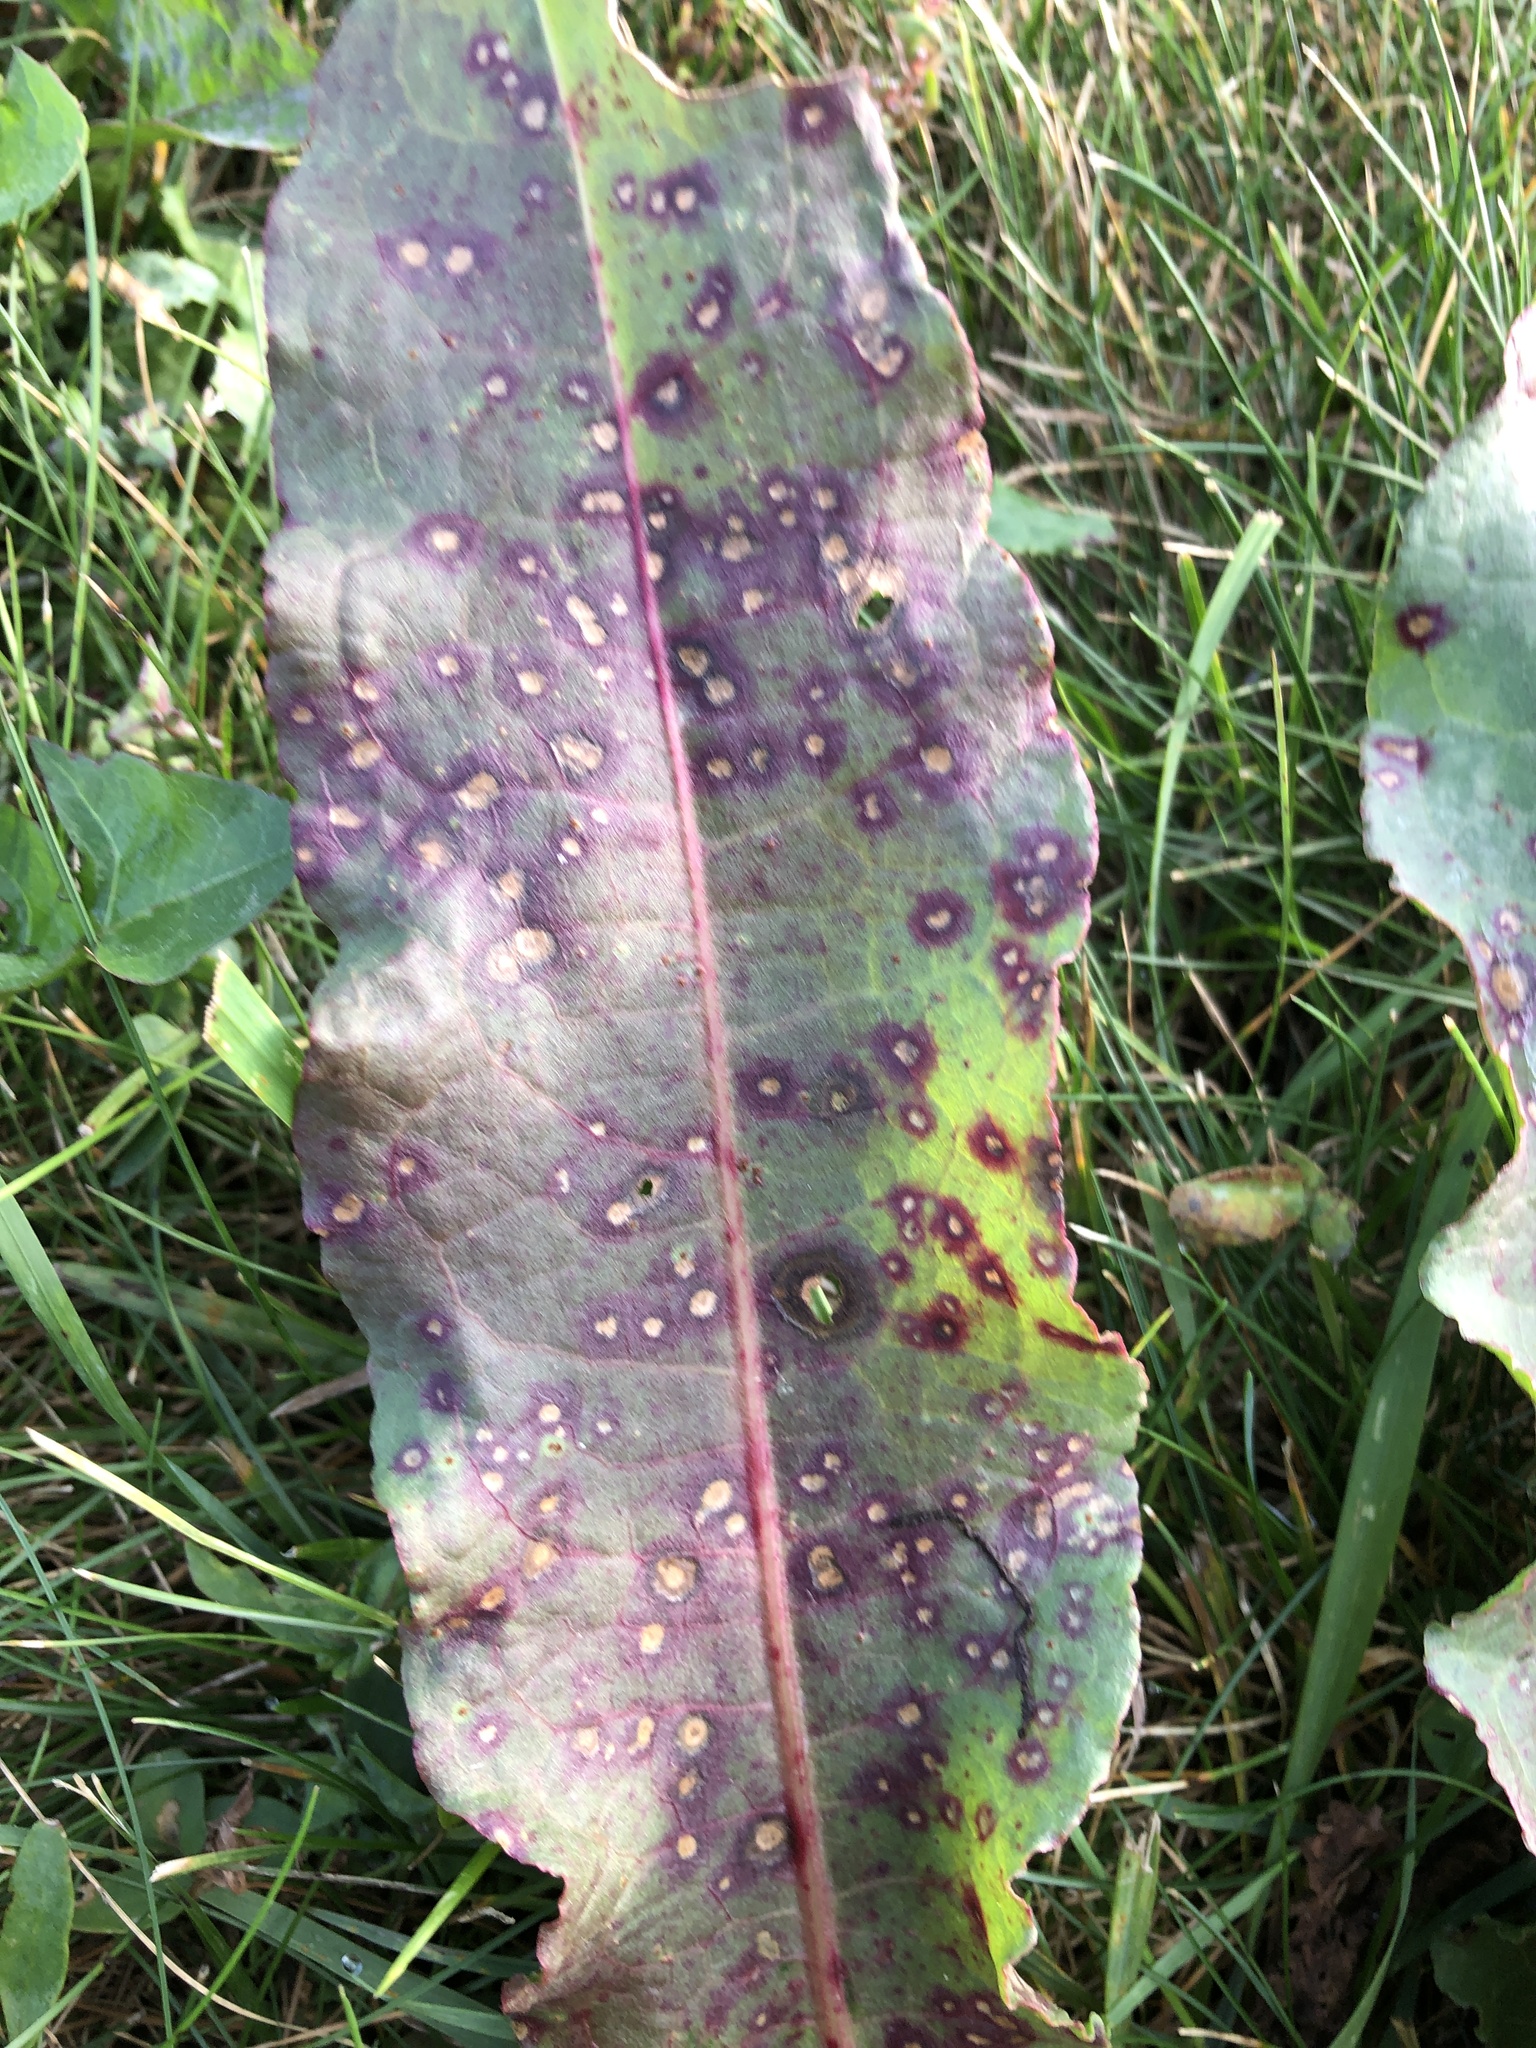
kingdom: Fungi
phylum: Ascomycota
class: Dothideomycetes
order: Mycosphaerellales
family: Mycosphaerellaceae
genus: Ramularia
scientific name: Ramularia rubella
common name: Red dock spot
